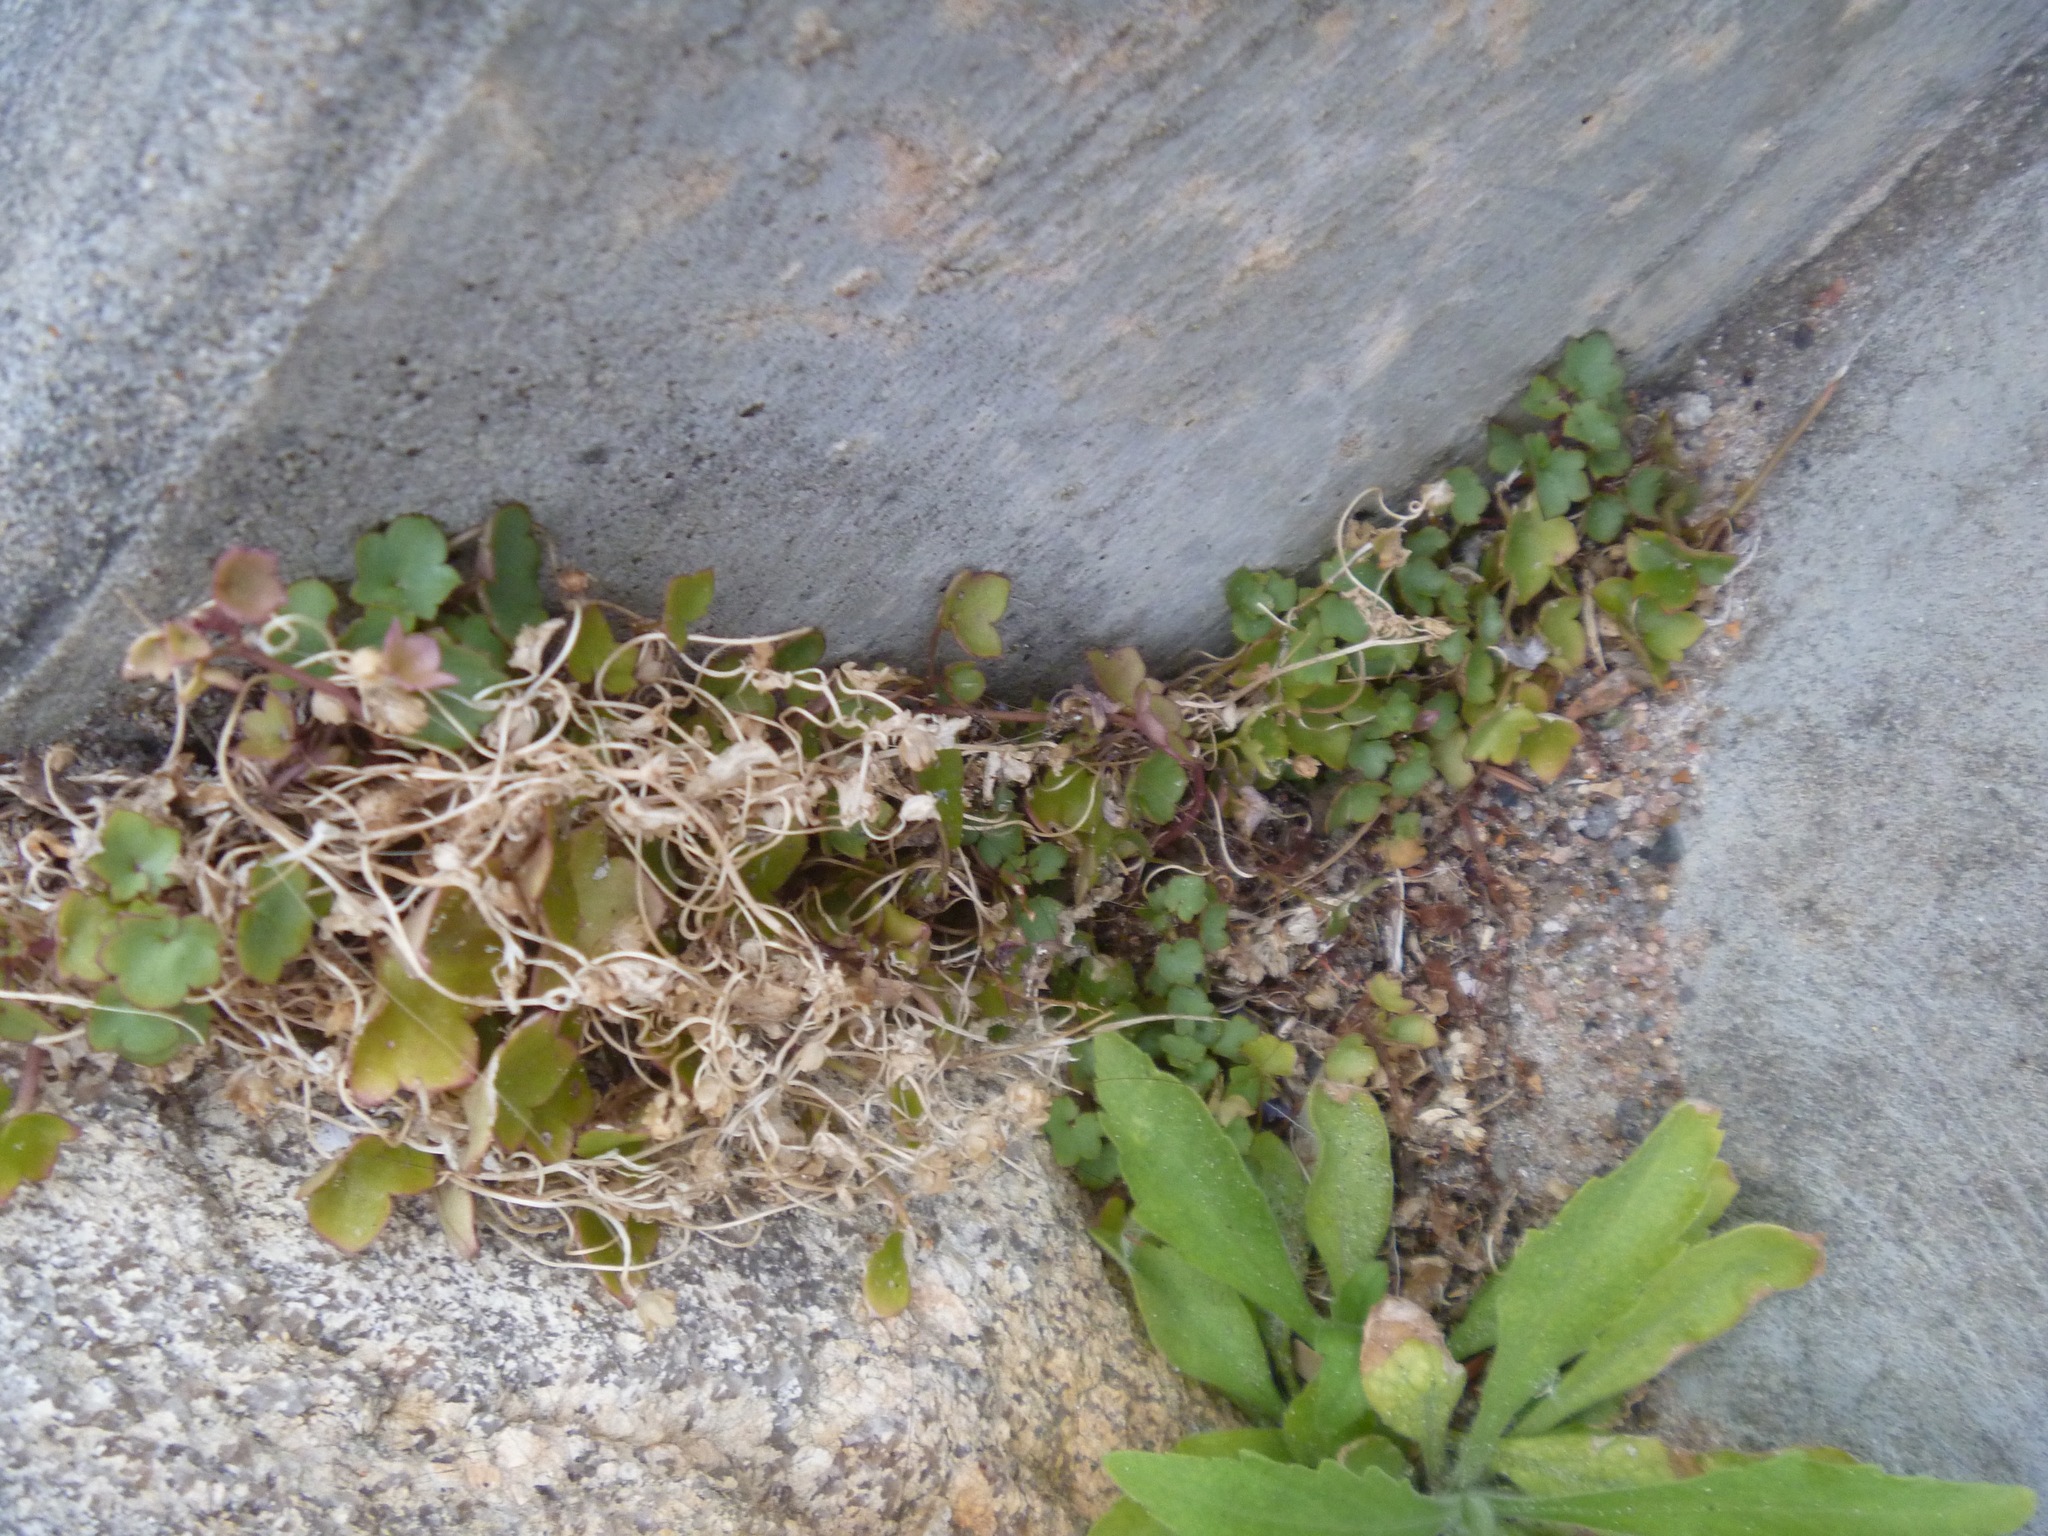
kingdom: Plantae
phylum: Tracheophyta
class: Magnoliopsida
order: Lamiales
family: Plantaginaceae
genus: Cymbalaria
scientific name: Cymbalaria muralis
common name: Ivy-leaved toadflax
